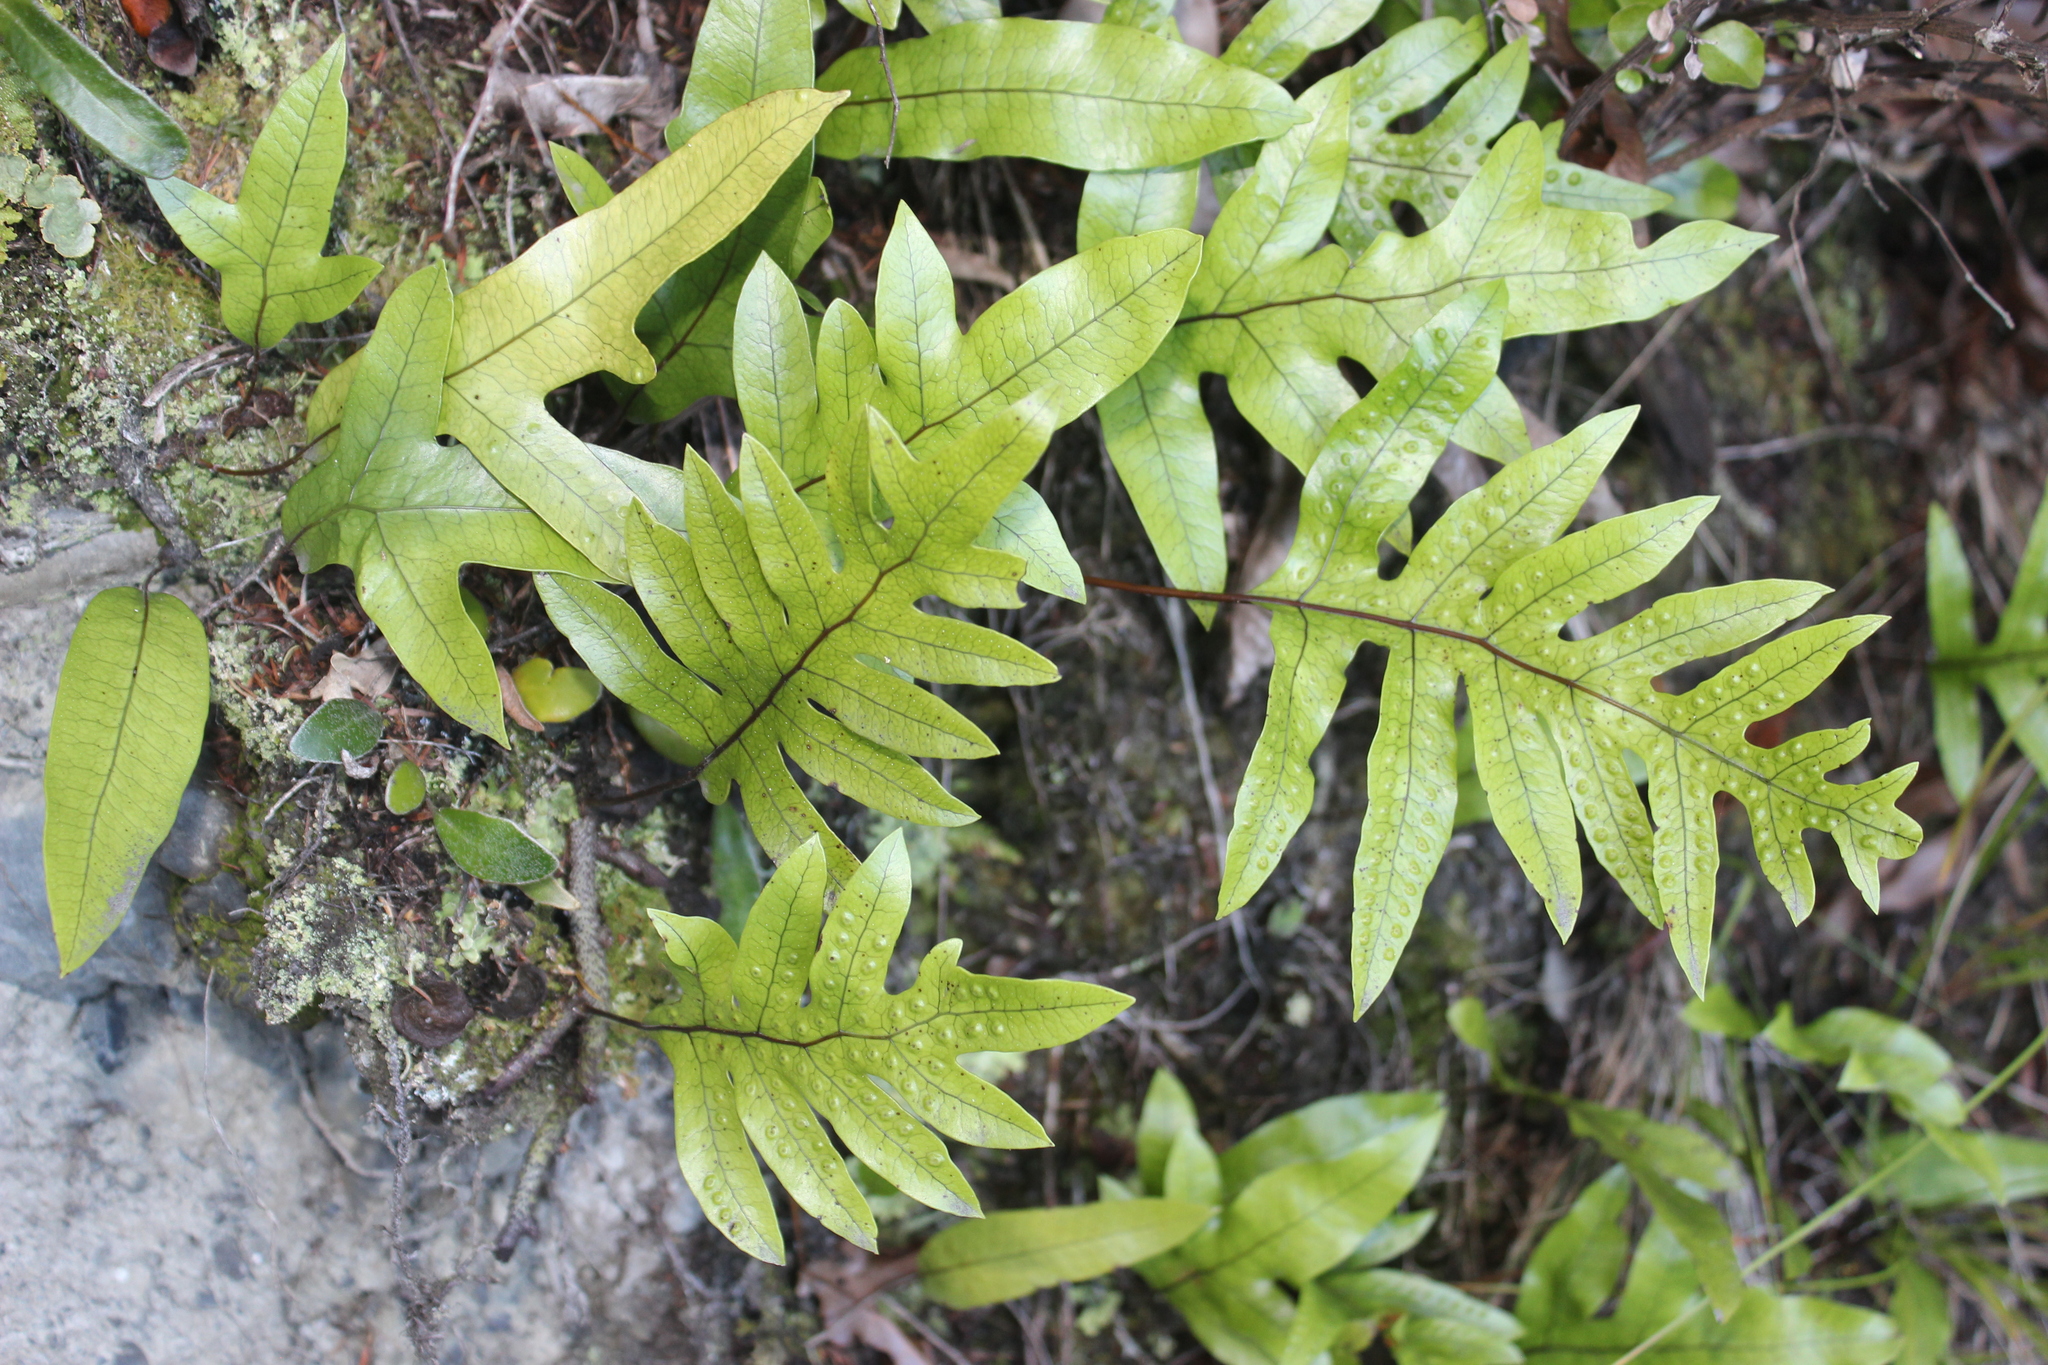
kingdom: Plantae
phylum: Tracheophyta
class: Polypodiopsida
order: Polypodiales
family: Polypodiaceae
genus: Lecanopteris
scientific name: Lecanopteris pustulata
